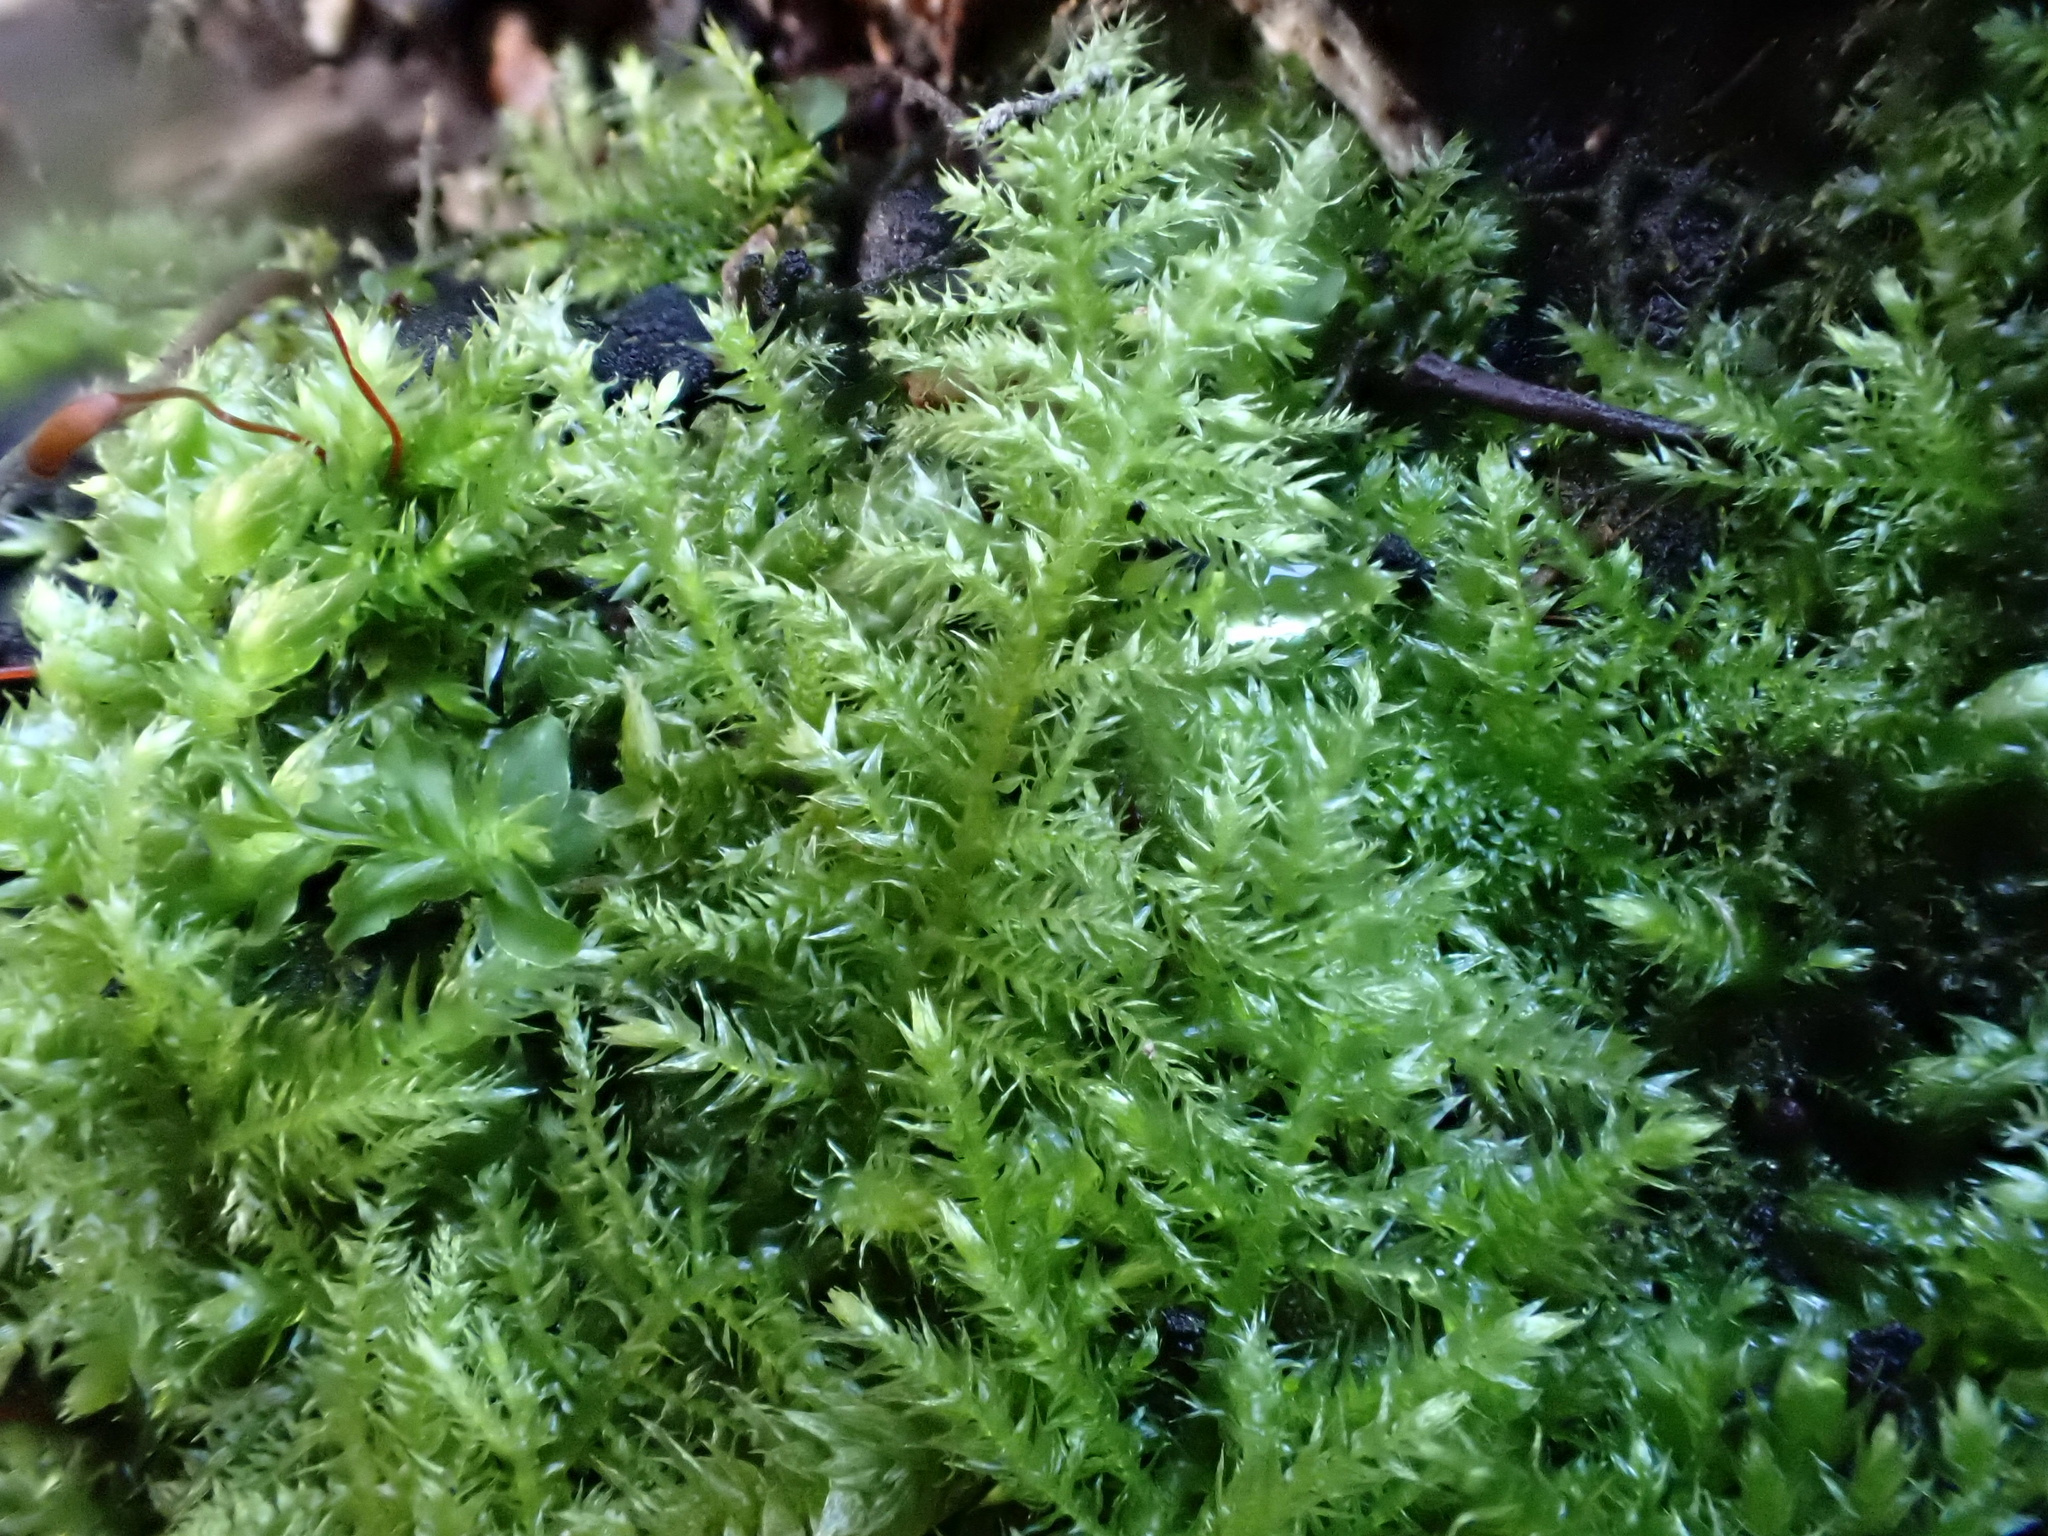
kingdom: Plantae
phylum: Bryophyta
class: Bryopsida
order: Hypnales
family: Brachytheciaceae
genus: Kindbergia
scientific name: Kindbergia praelonga
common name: Slender beaked moss
